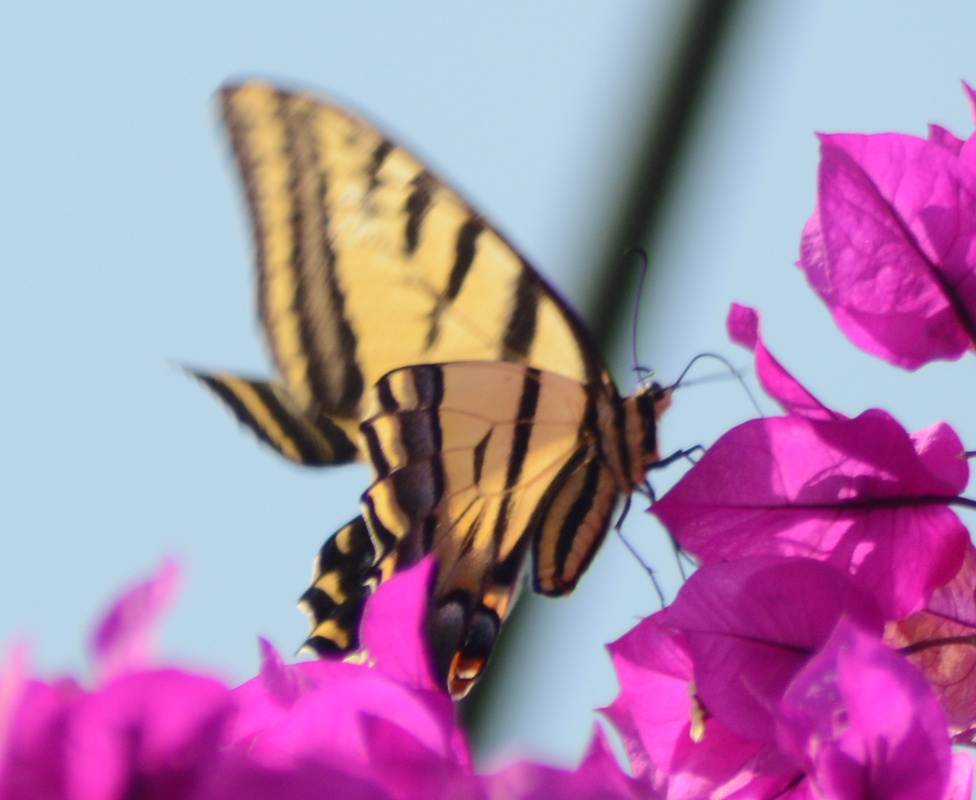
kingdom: Animalia
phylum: Arthropoda
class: Insecta
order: Lepidoptera
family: Papilionidae
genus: Papilio
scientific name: Papilio multicaudata
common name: Two-tailed tiger swallowtail
